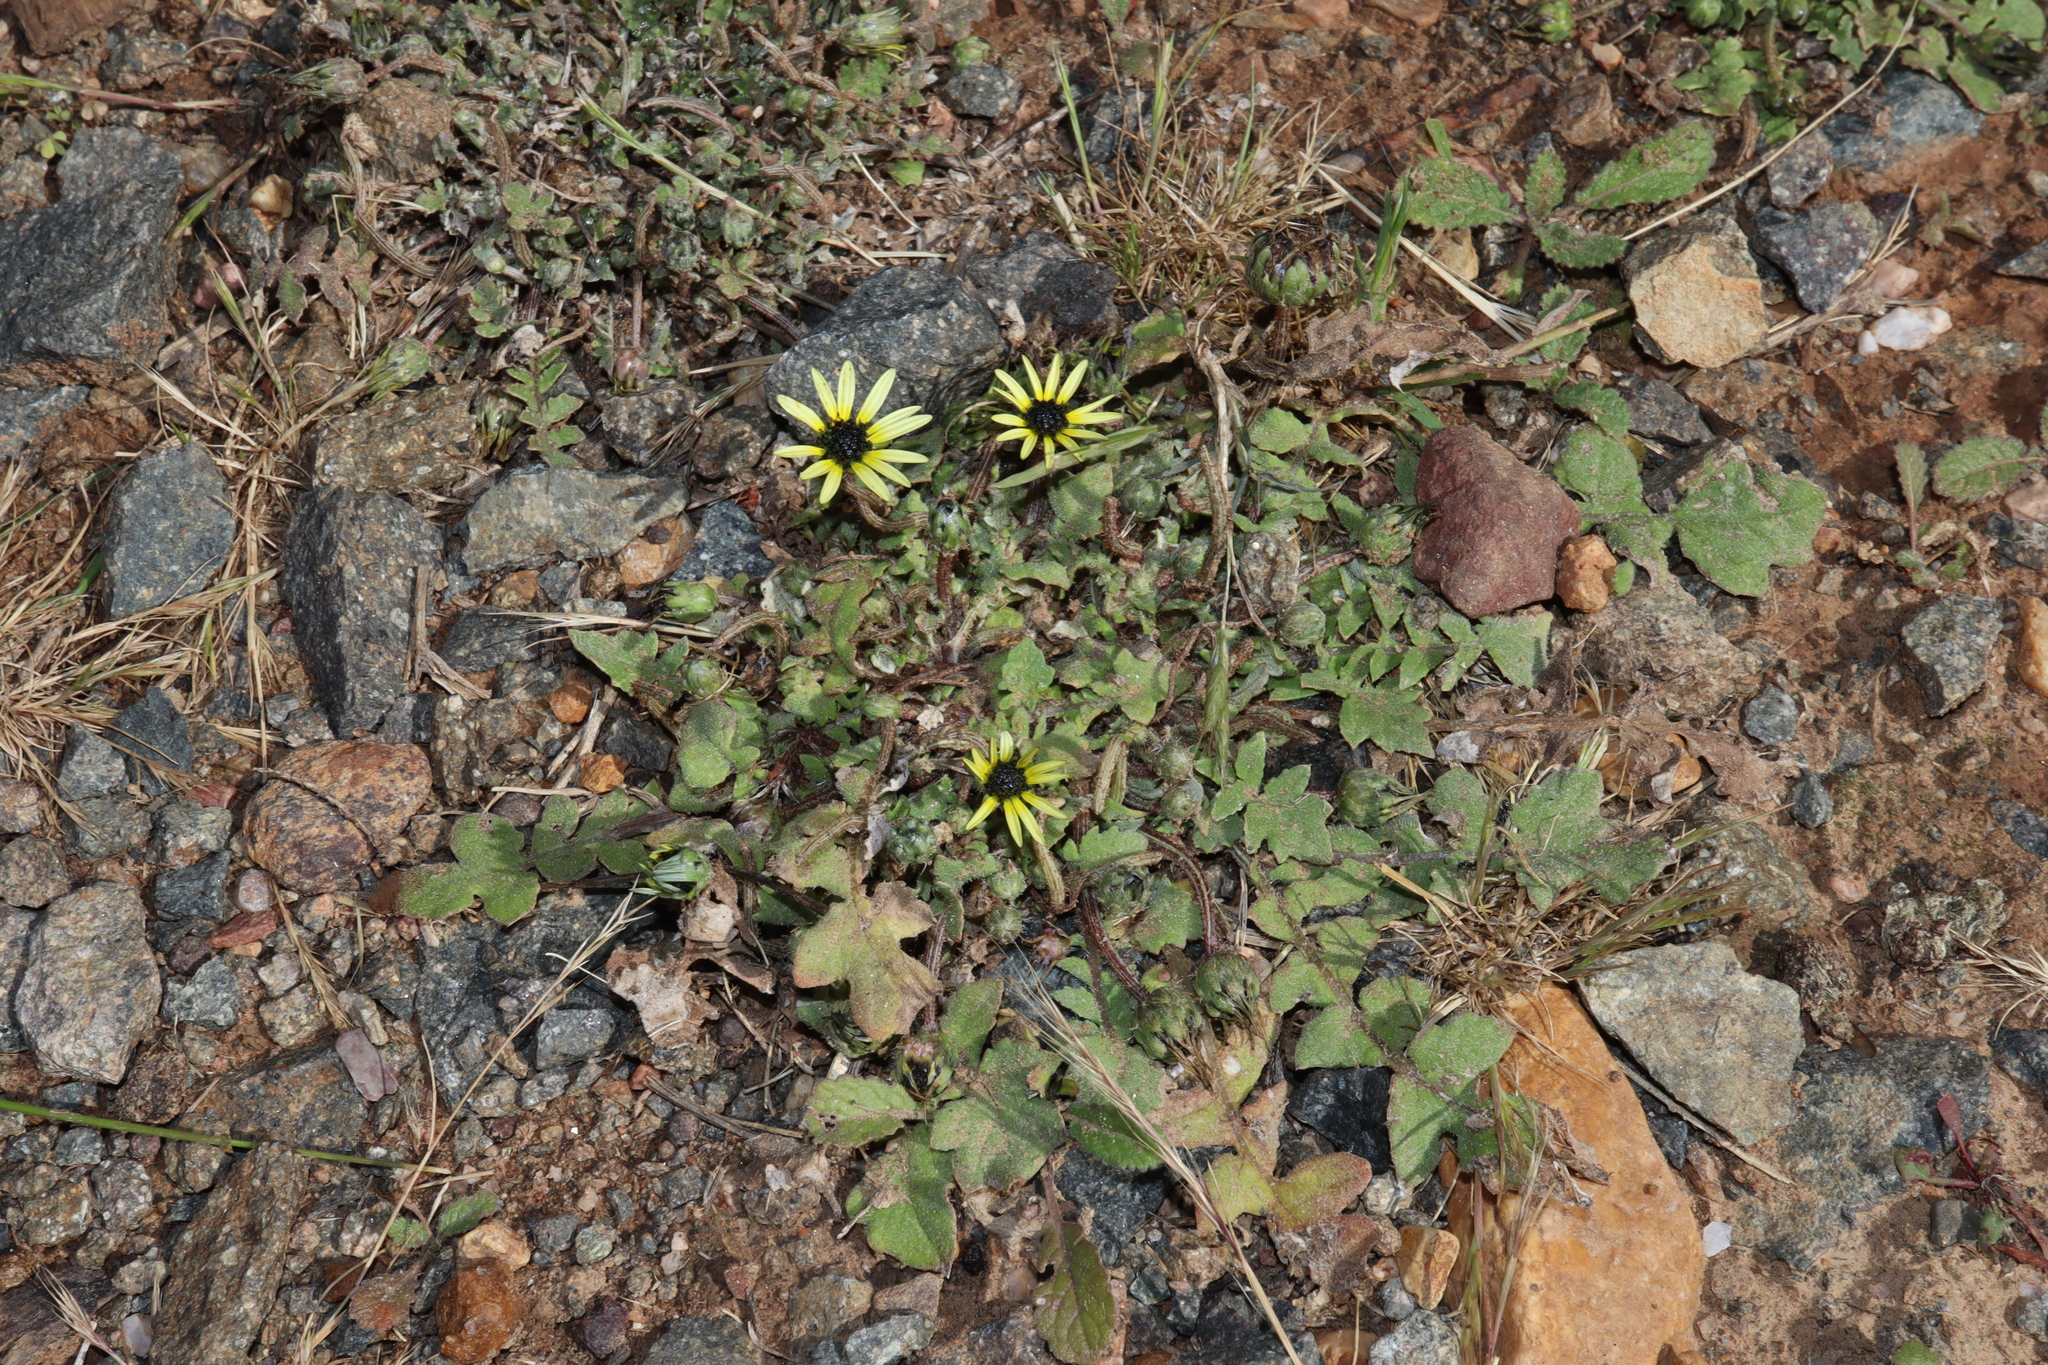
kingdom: Plantae
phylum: Tracheophyta
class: Magnoliopsida
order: Asterales
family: Asteraceae
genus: Arctotheca
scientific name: Arctotheca calendula
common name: Capeweed
